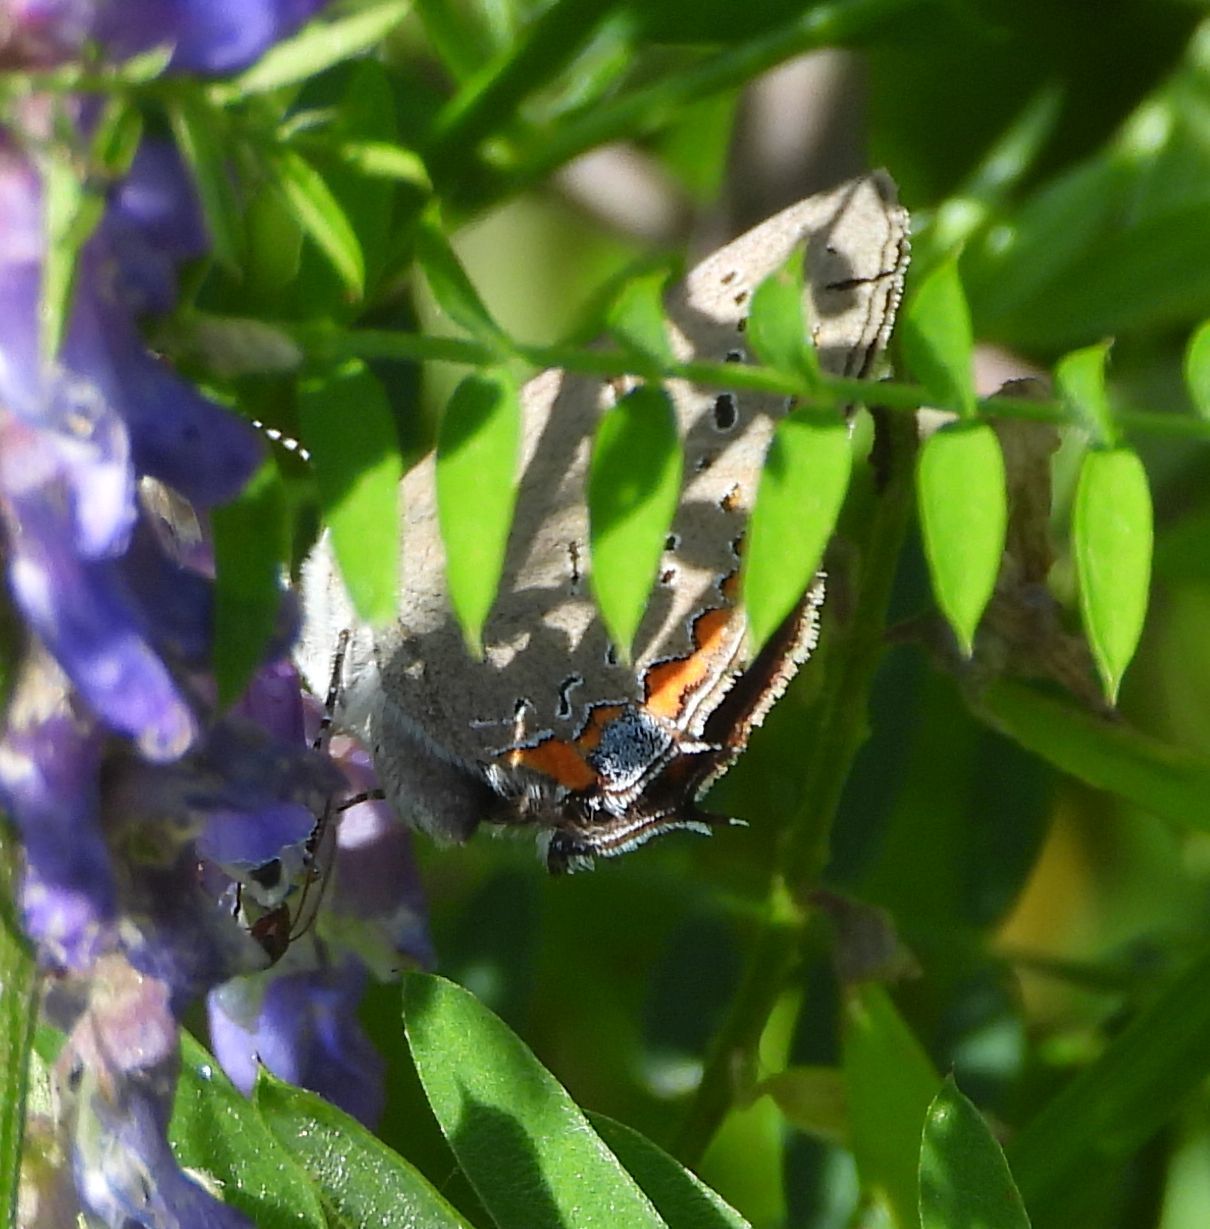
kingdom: Animalia
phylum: Arthropoda
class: Insecta
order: Lepidoptera
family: Lycaenidae
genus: Strymon
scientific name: Strymon acadica
